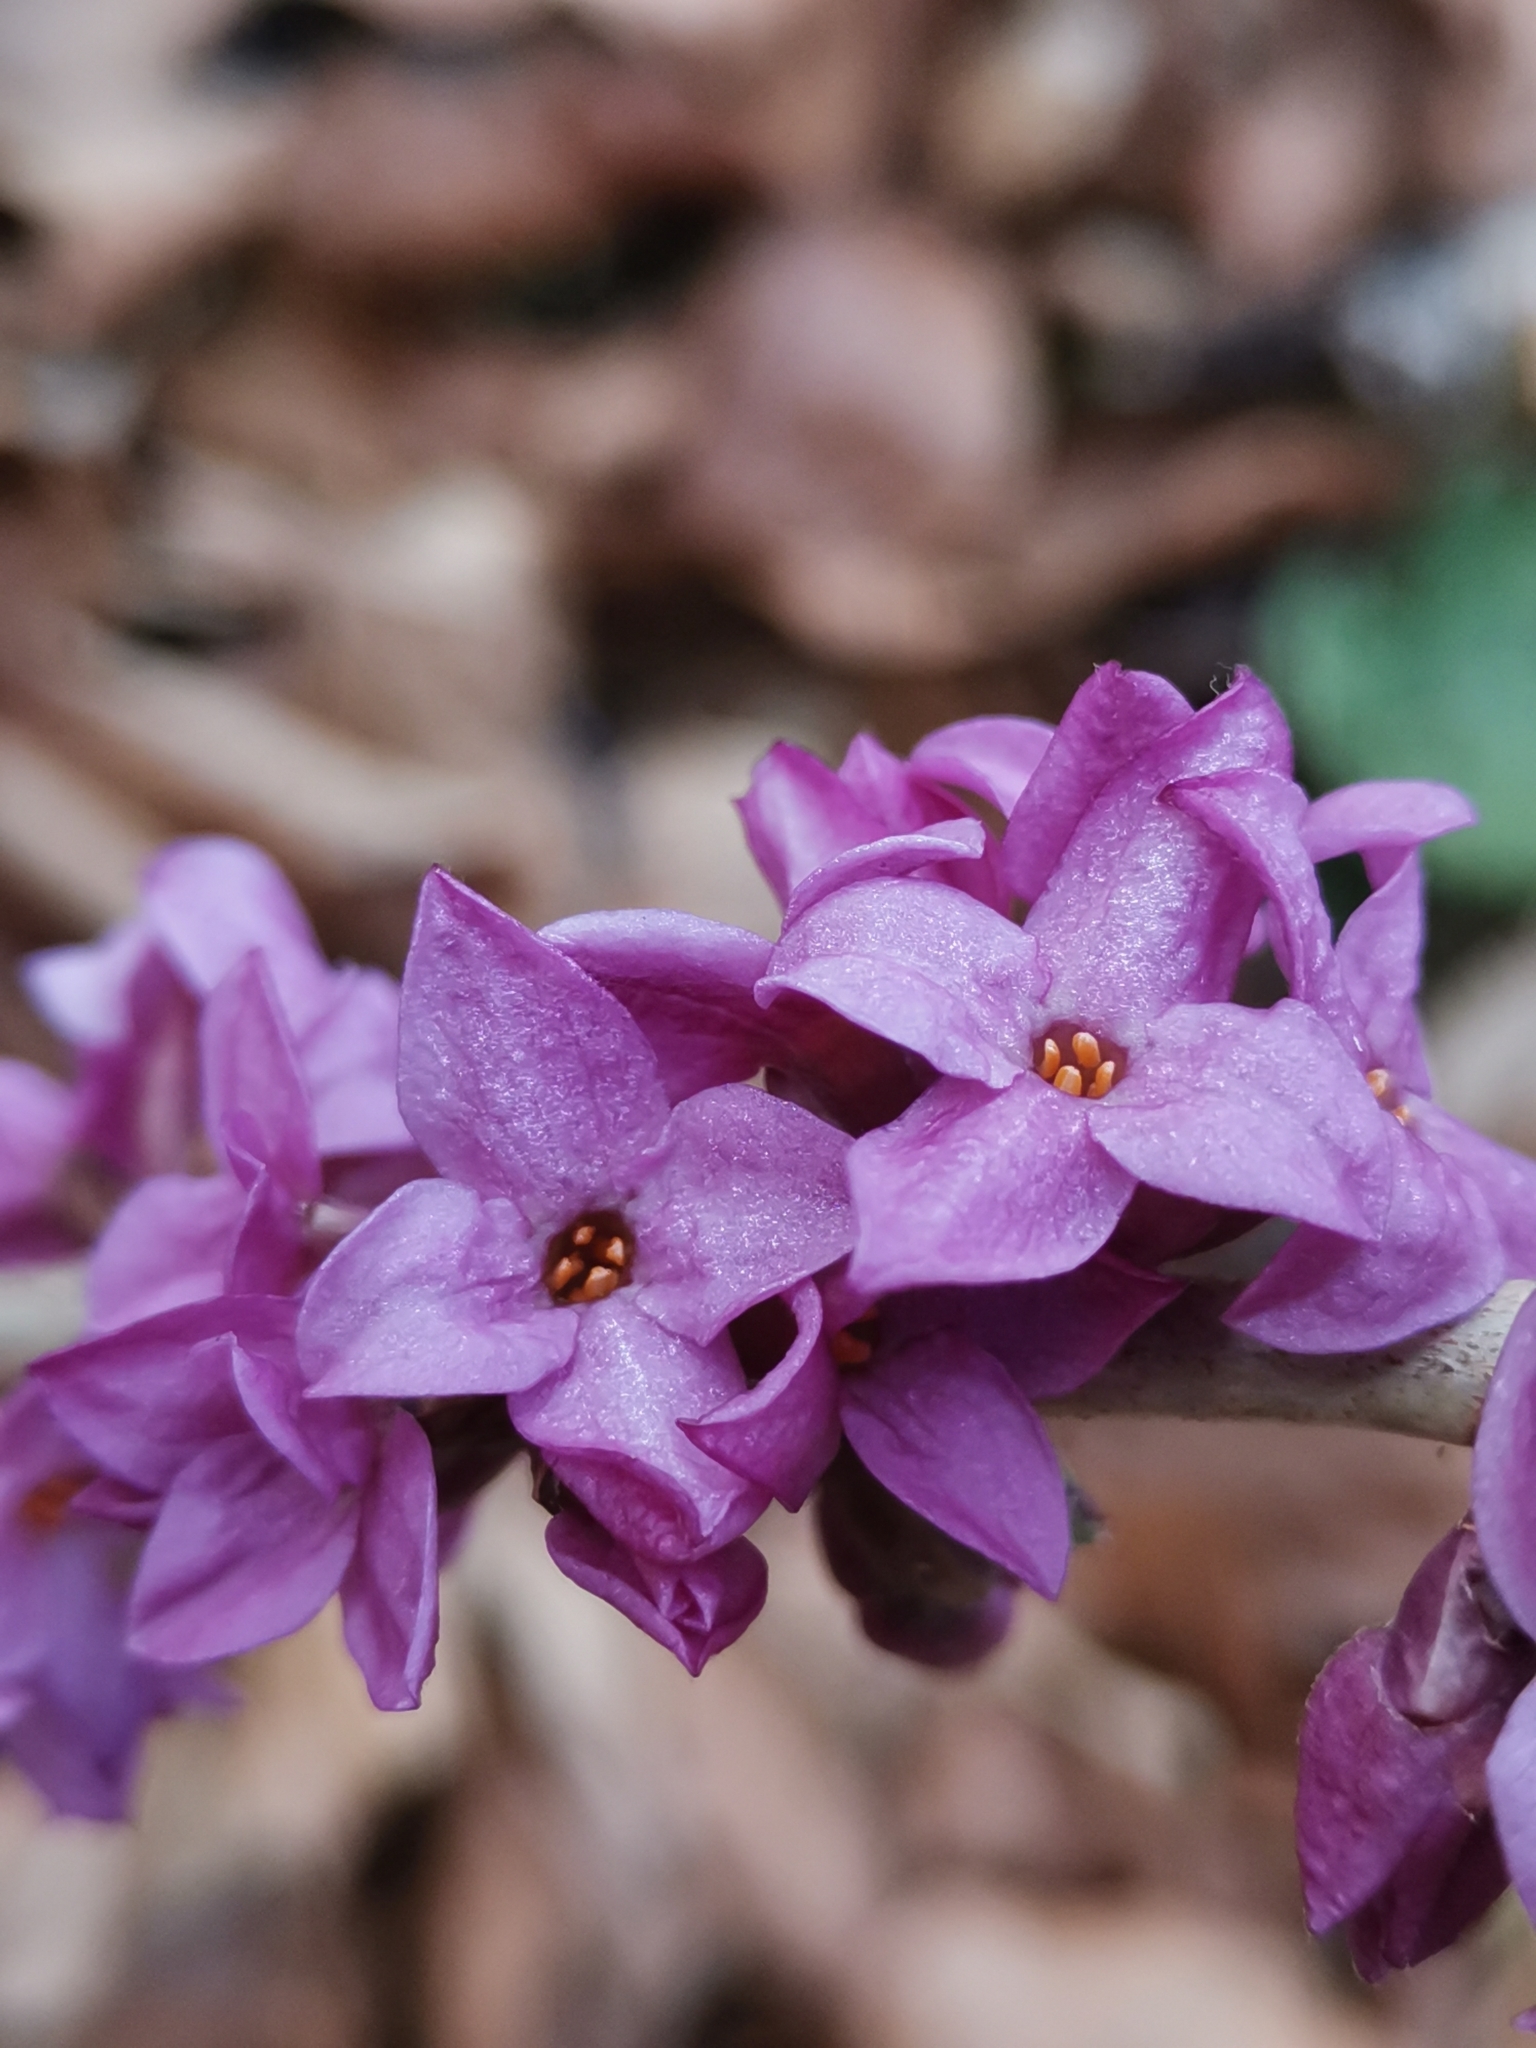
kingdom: Plantae
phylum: Tracheophyta
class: Magnoliopsida
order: Malvales
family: Thymelaeaceae
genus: Daphne
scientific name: Daphne mezereum
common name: Mezereon
